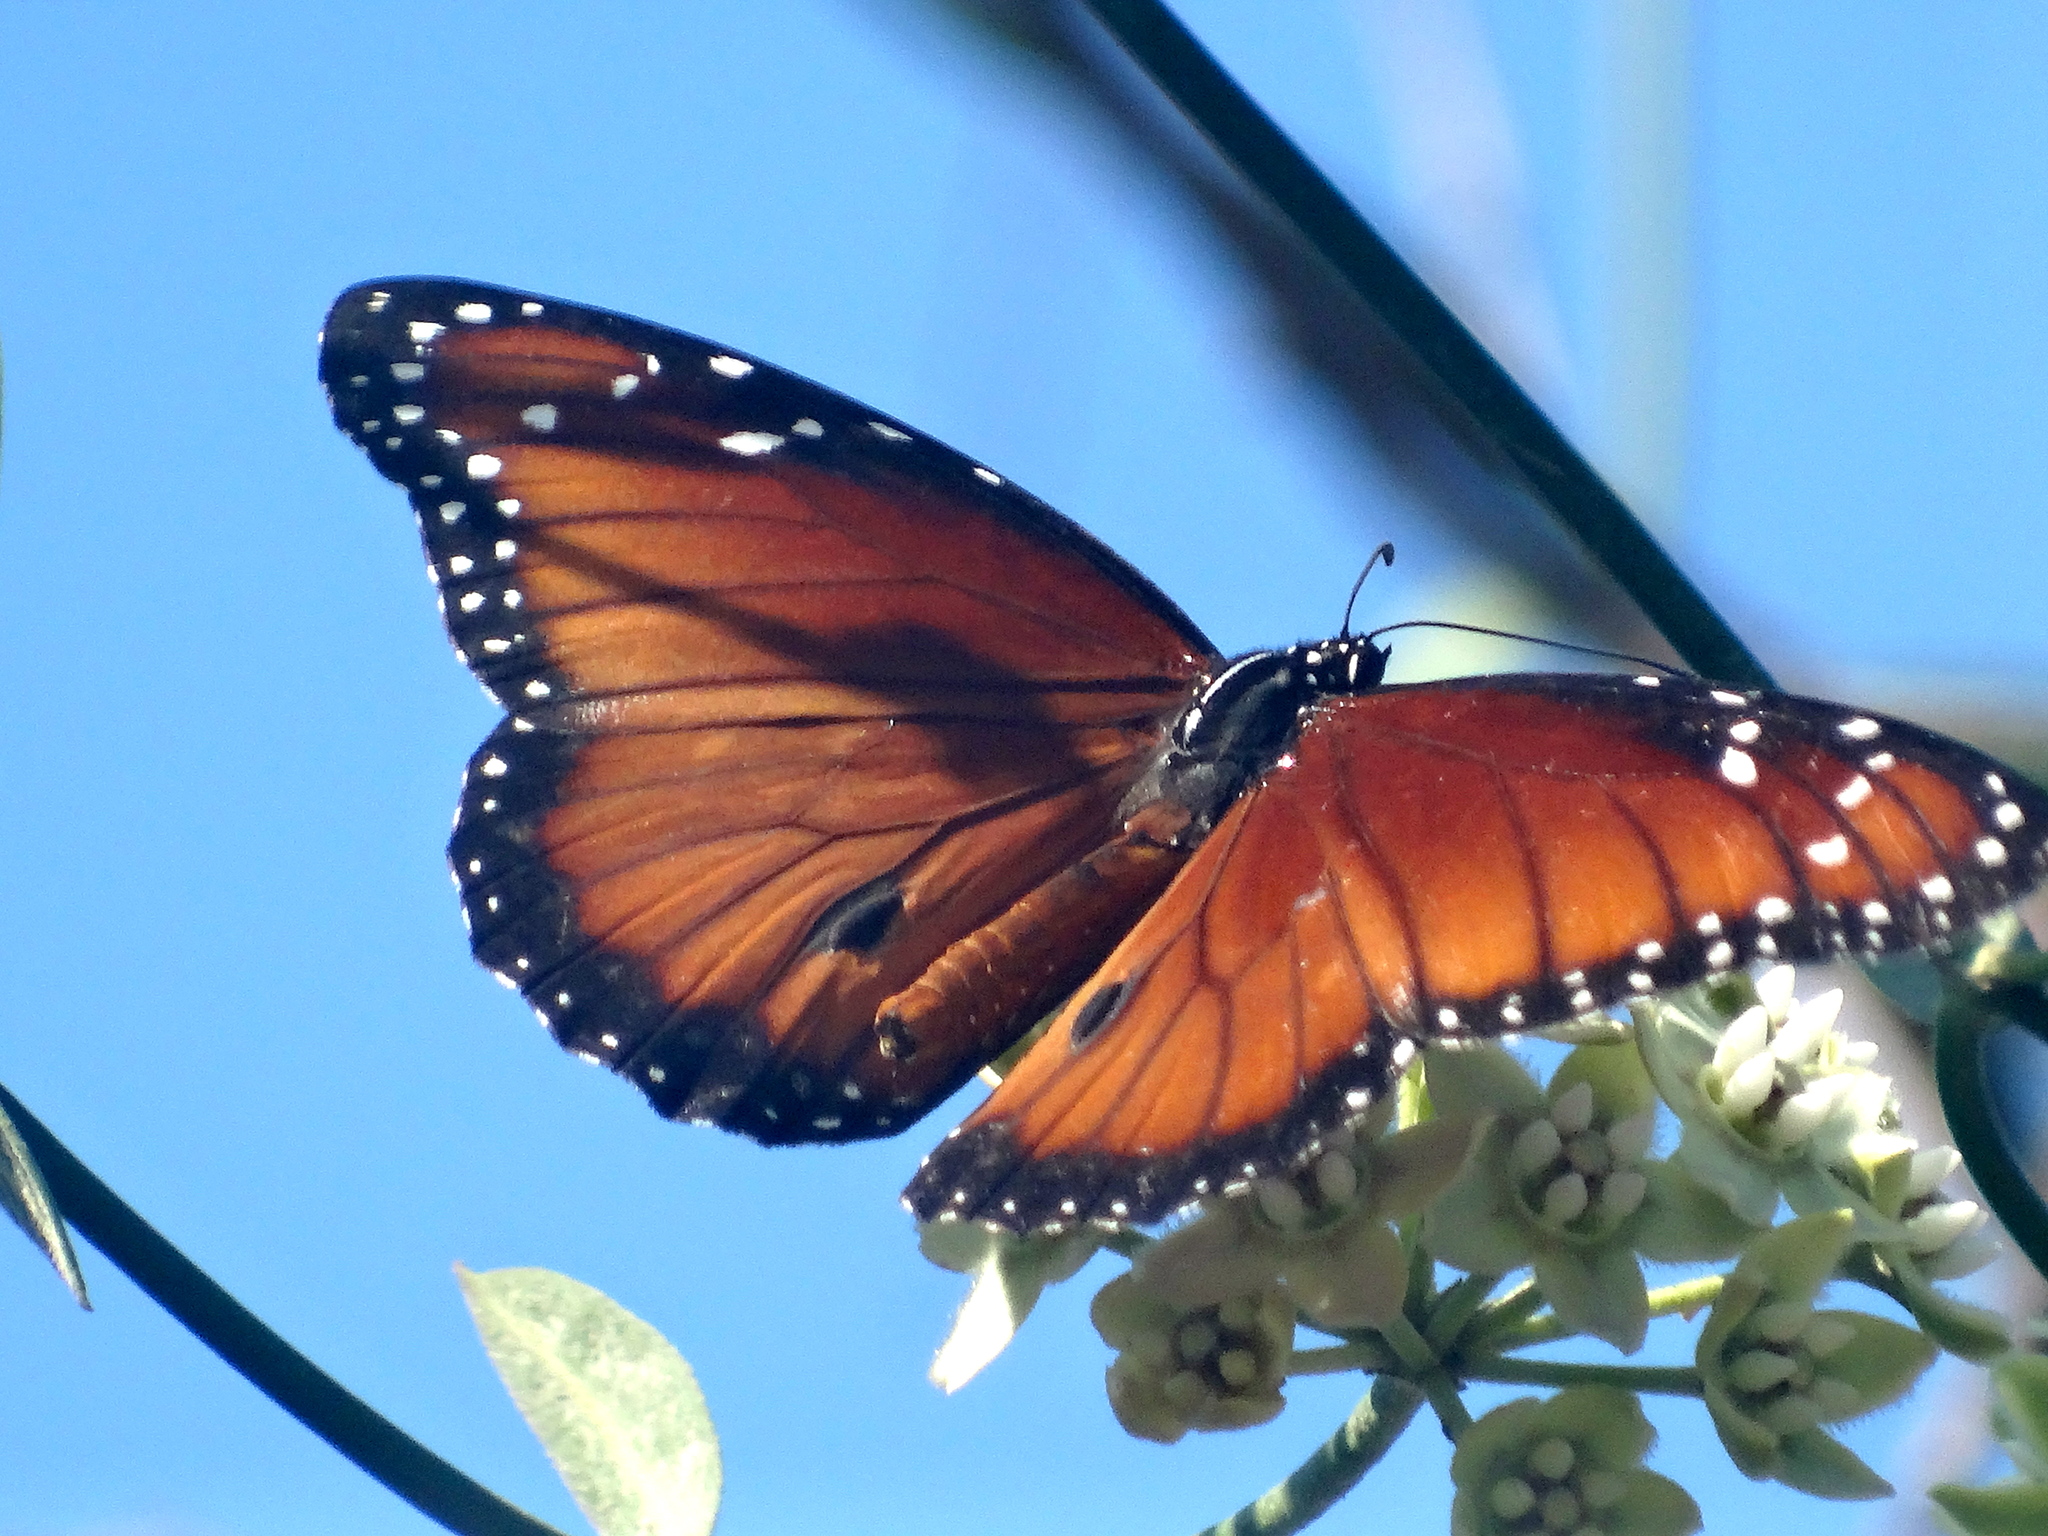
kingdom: Animalia
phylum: Arthropoda
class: Insecta
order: Lepidoptera
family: Nymphalidae
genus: Danaus
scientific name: Danaus eresimus
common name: Soldier
